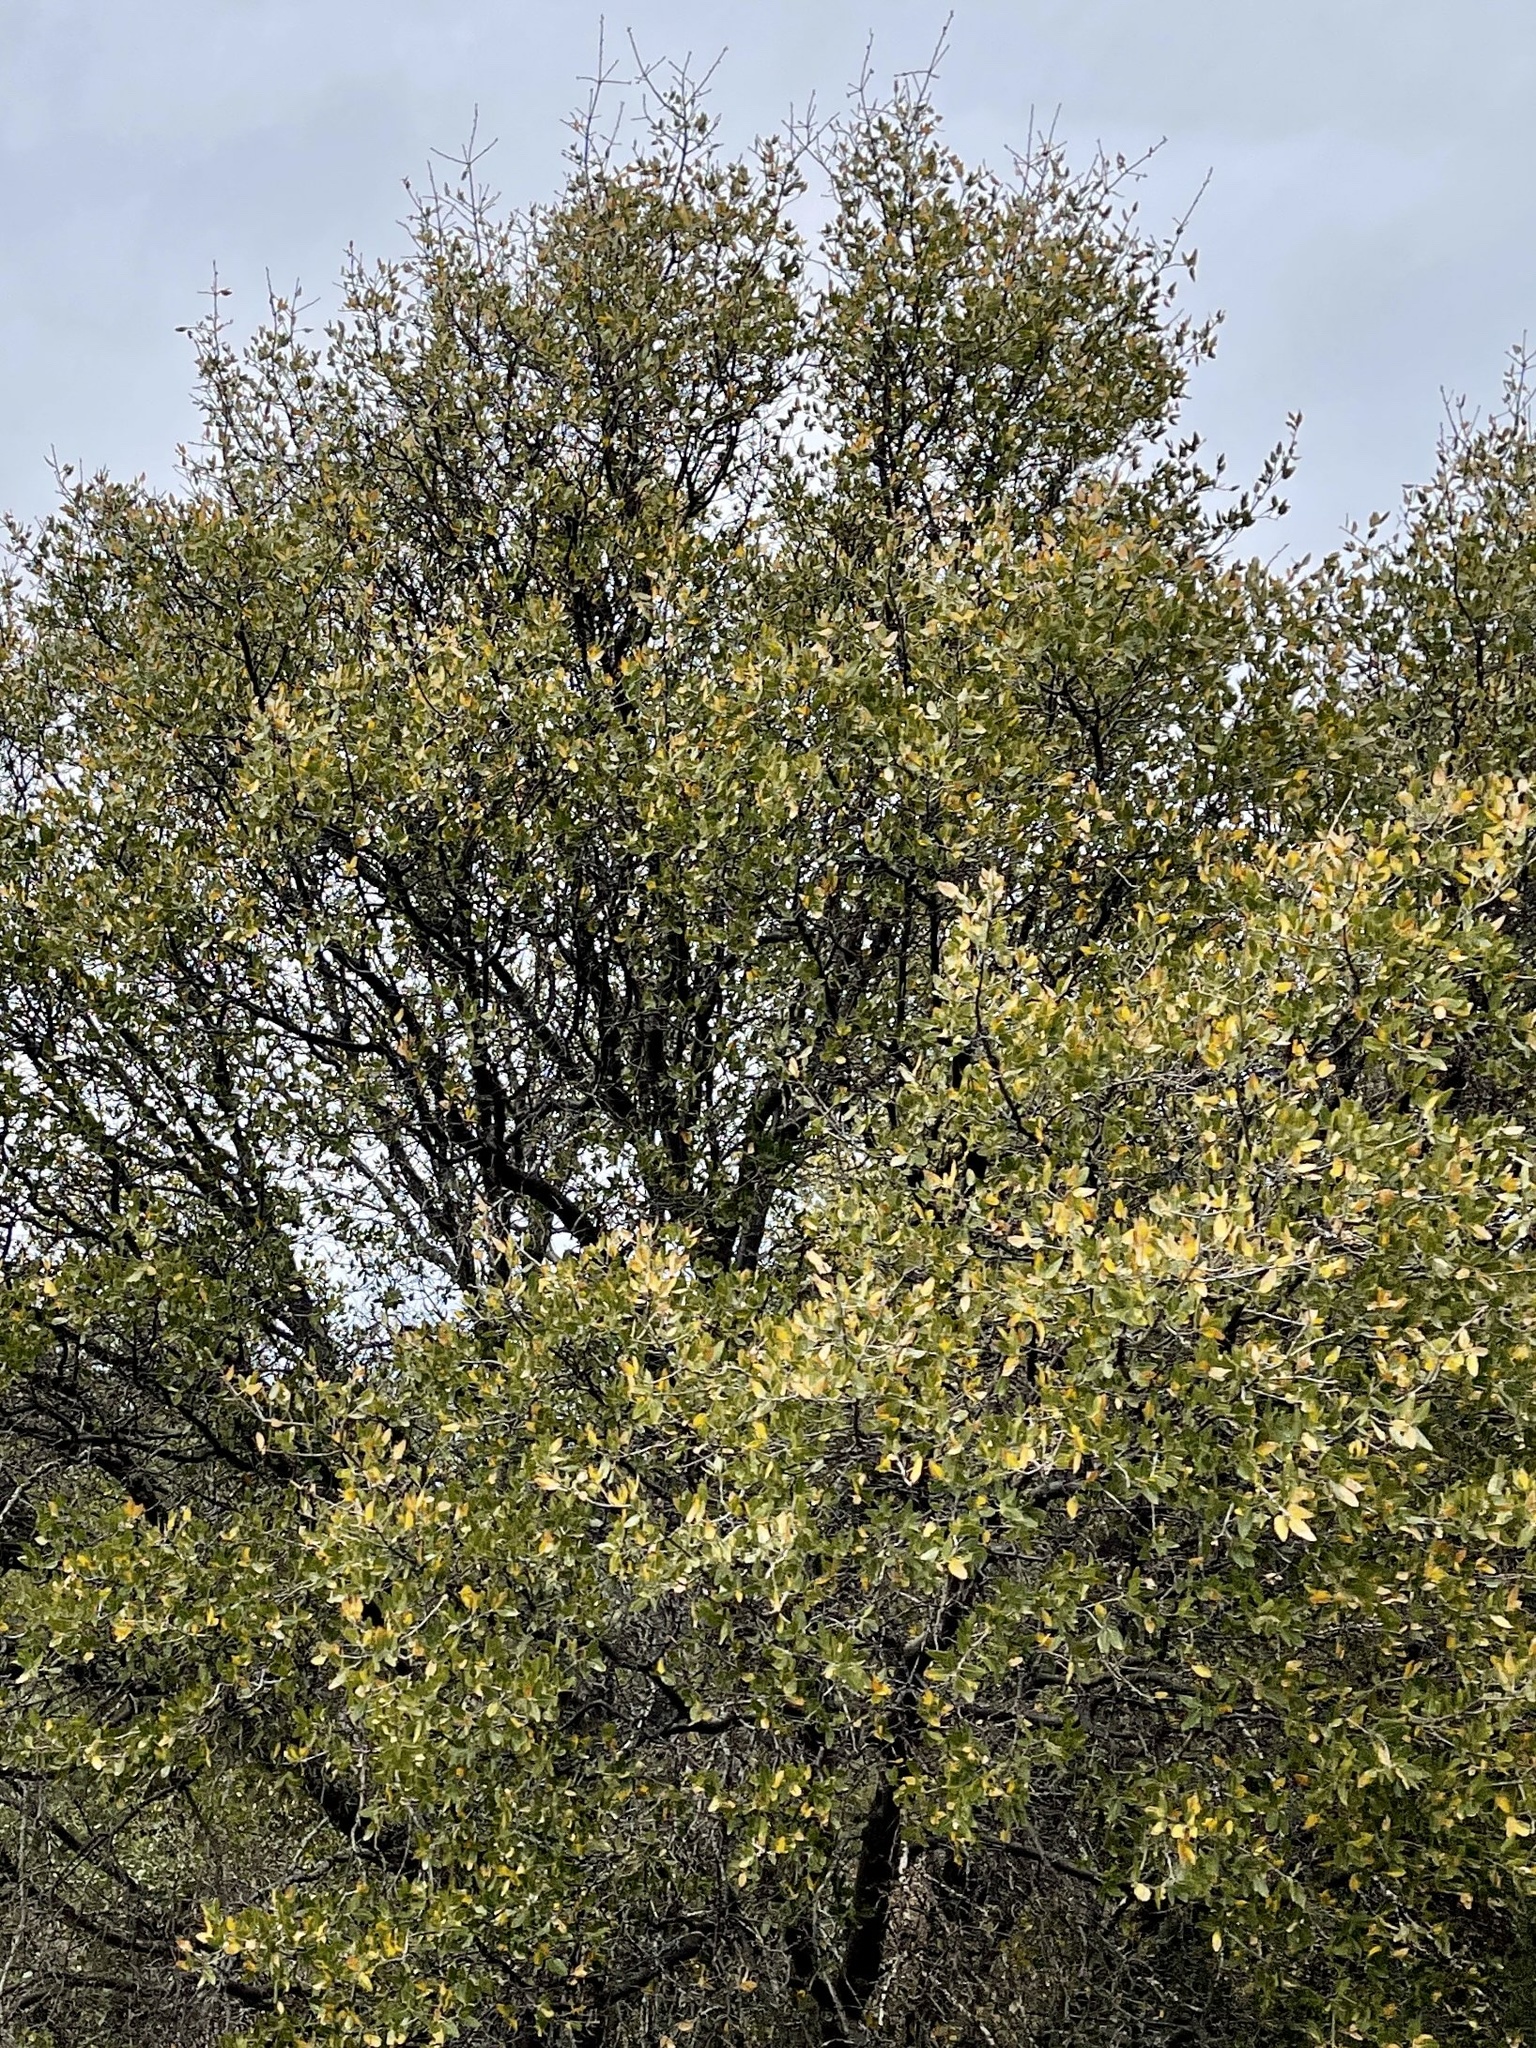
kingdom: Plantae
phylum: Tracheophyta
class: Magnoliopsida
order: Fagales
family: Fagaceae
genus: Quercus
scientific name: Quercus emoryi
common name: Emory oak
